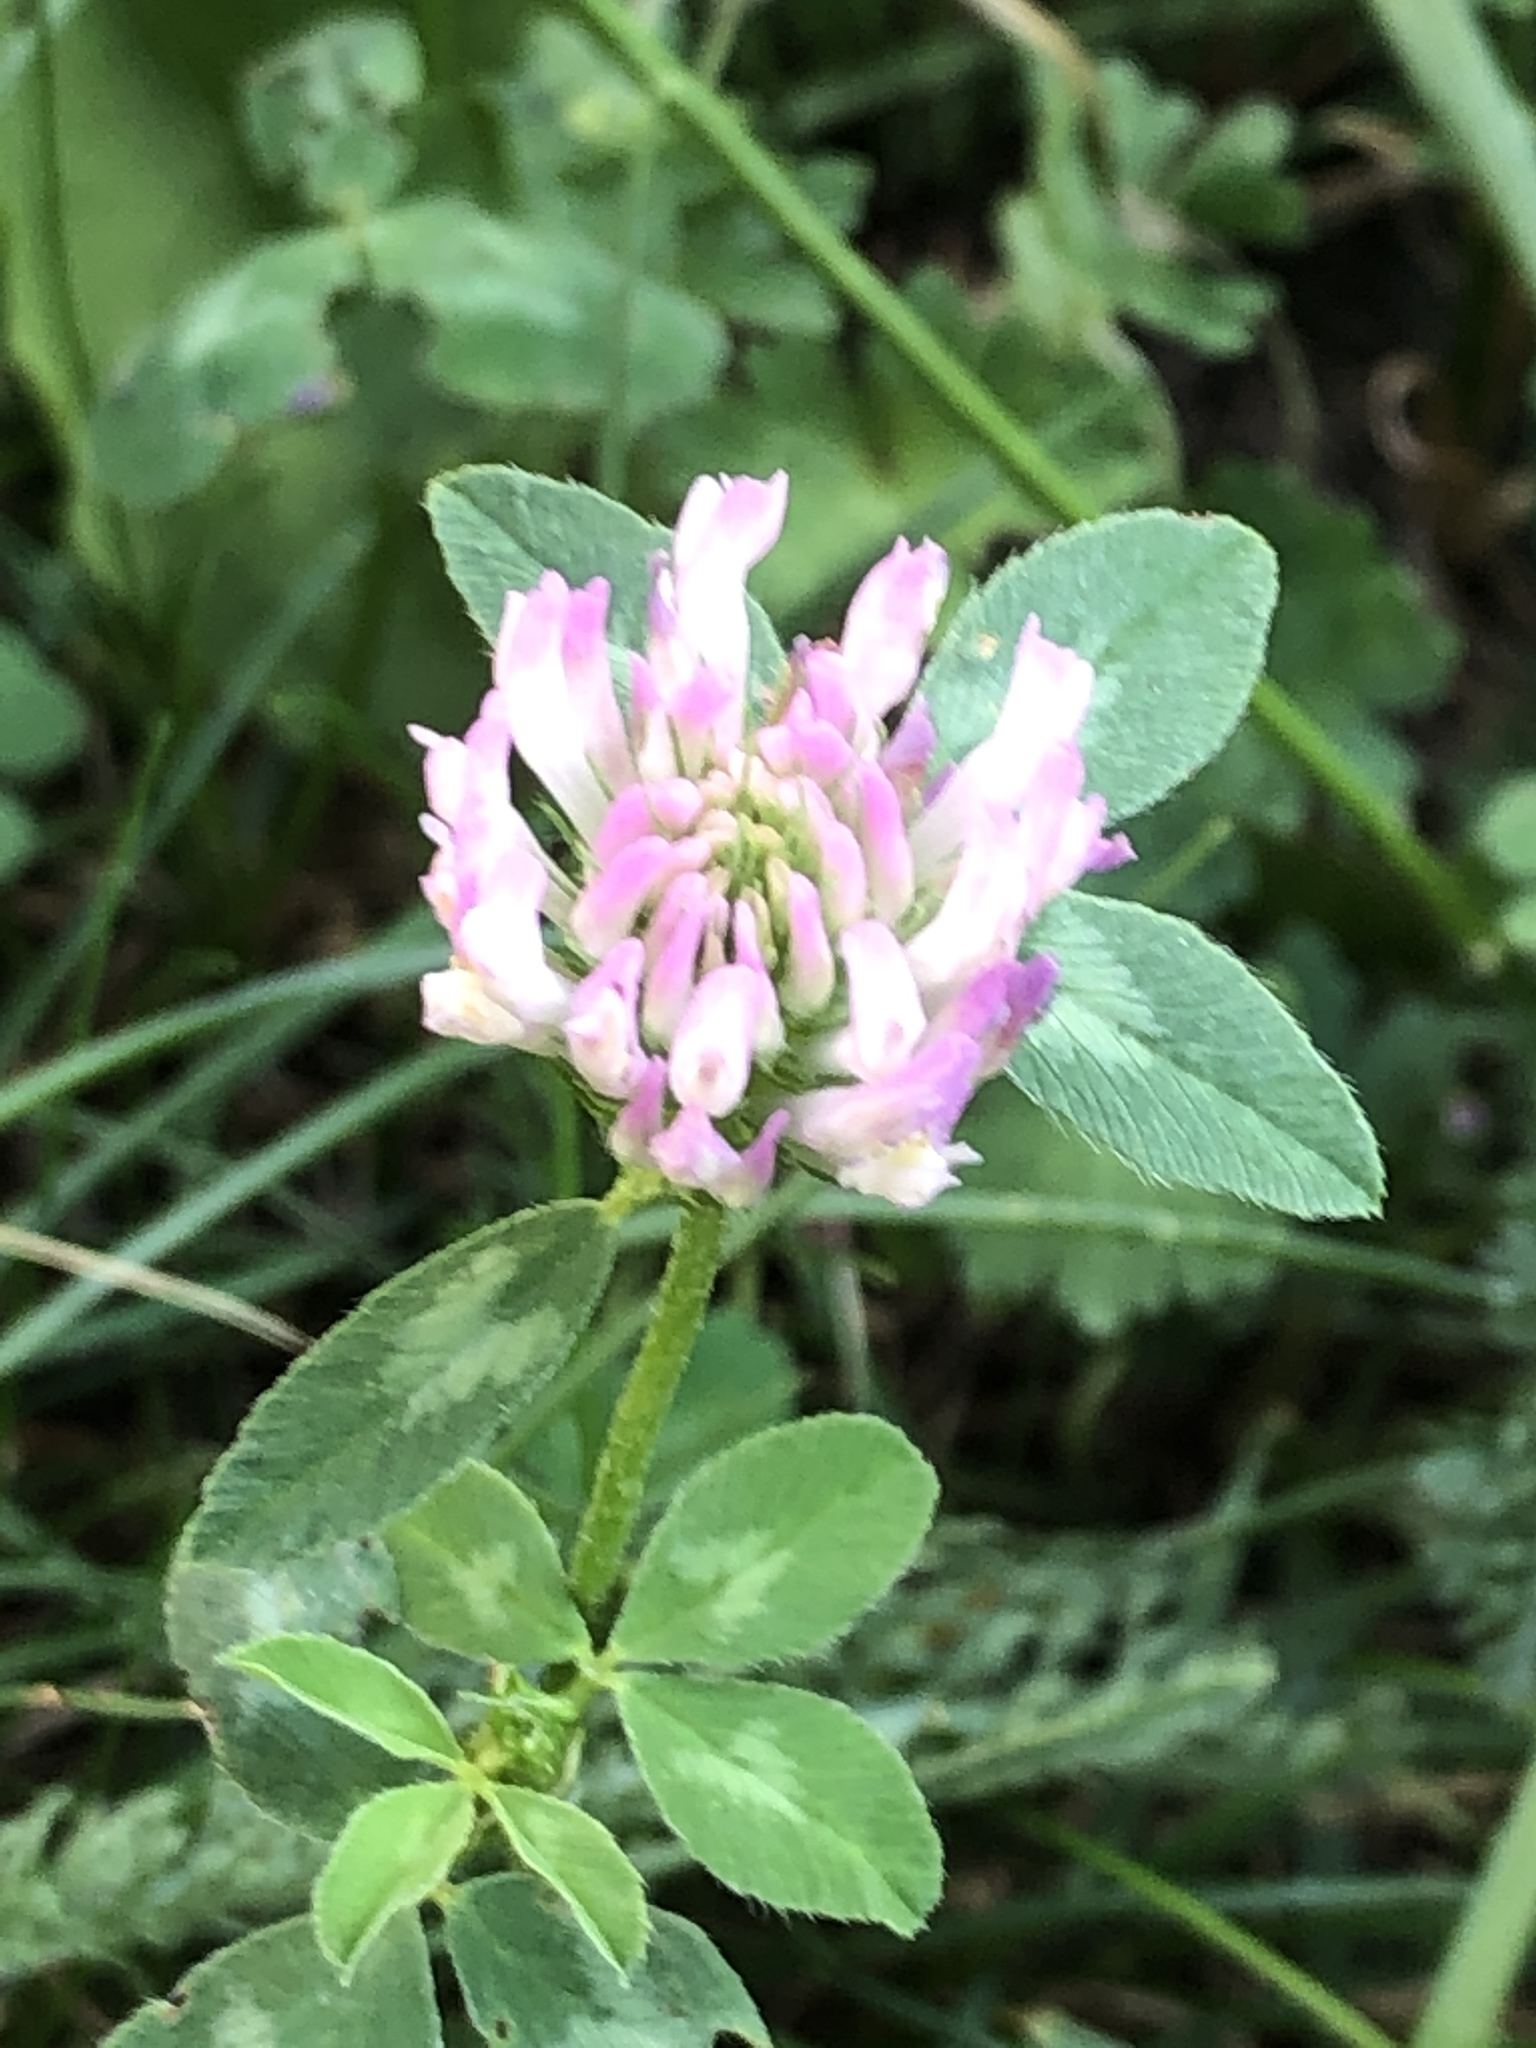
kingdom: Plantae
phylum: Tracheophyta
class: Magnoliopsida
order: Fabales
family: Fabaceae
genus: Trifolium
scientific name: Trifolium pratense
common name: Red clover
